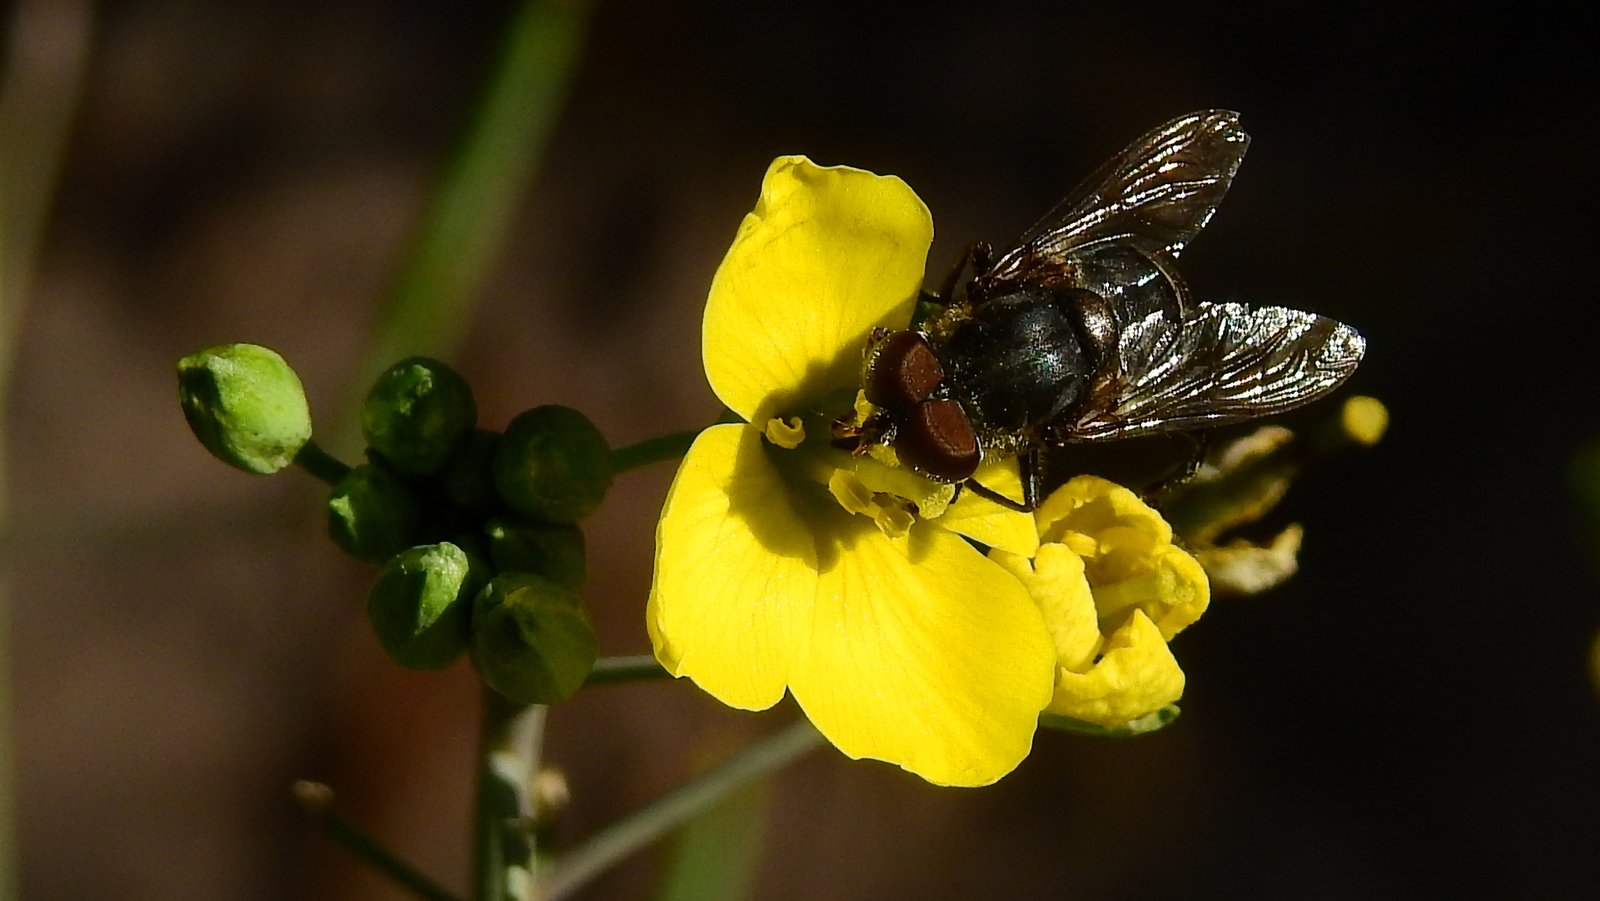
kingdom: Animalia
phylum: Arthropoda
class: Insecta
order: Diptera
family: Syrphidae
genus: Palpada
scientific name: Palpada furcata
